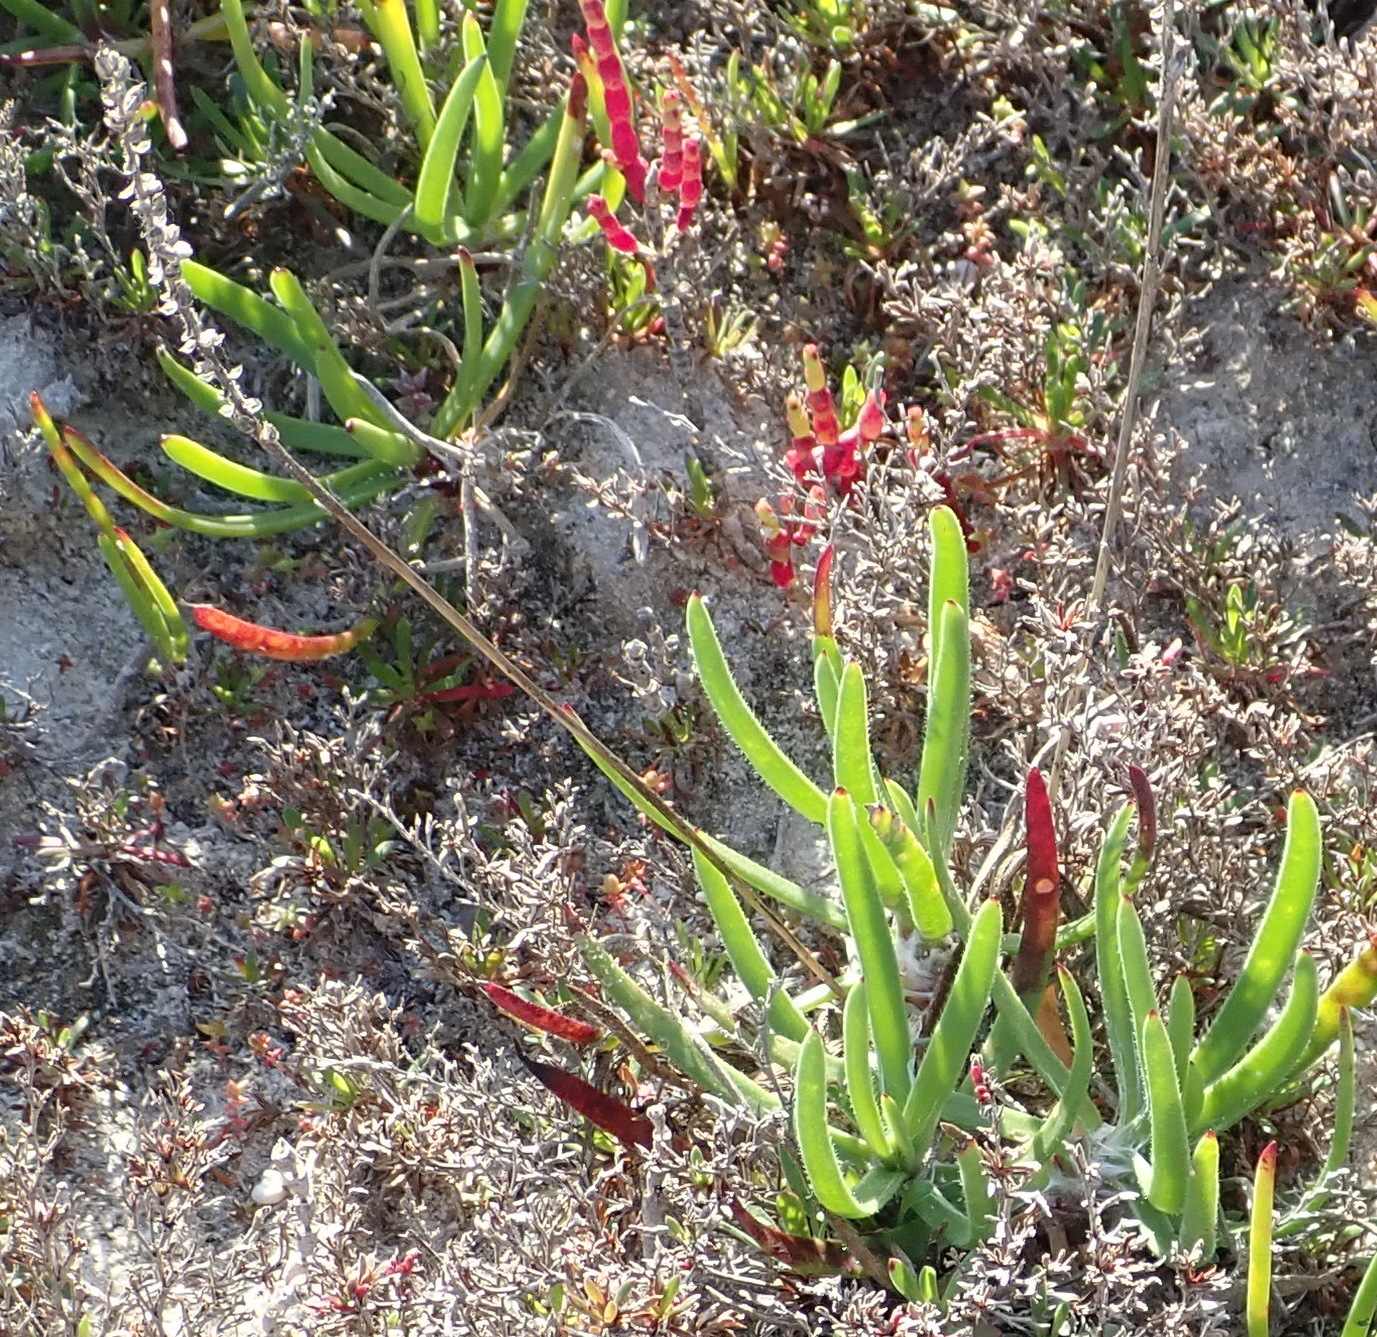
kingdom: Plantae
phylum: Tracheophyta
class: Magnoliopsida
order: Lamiales
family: Plantaginaceae
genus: Plantago
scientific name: Plantago carnosa
